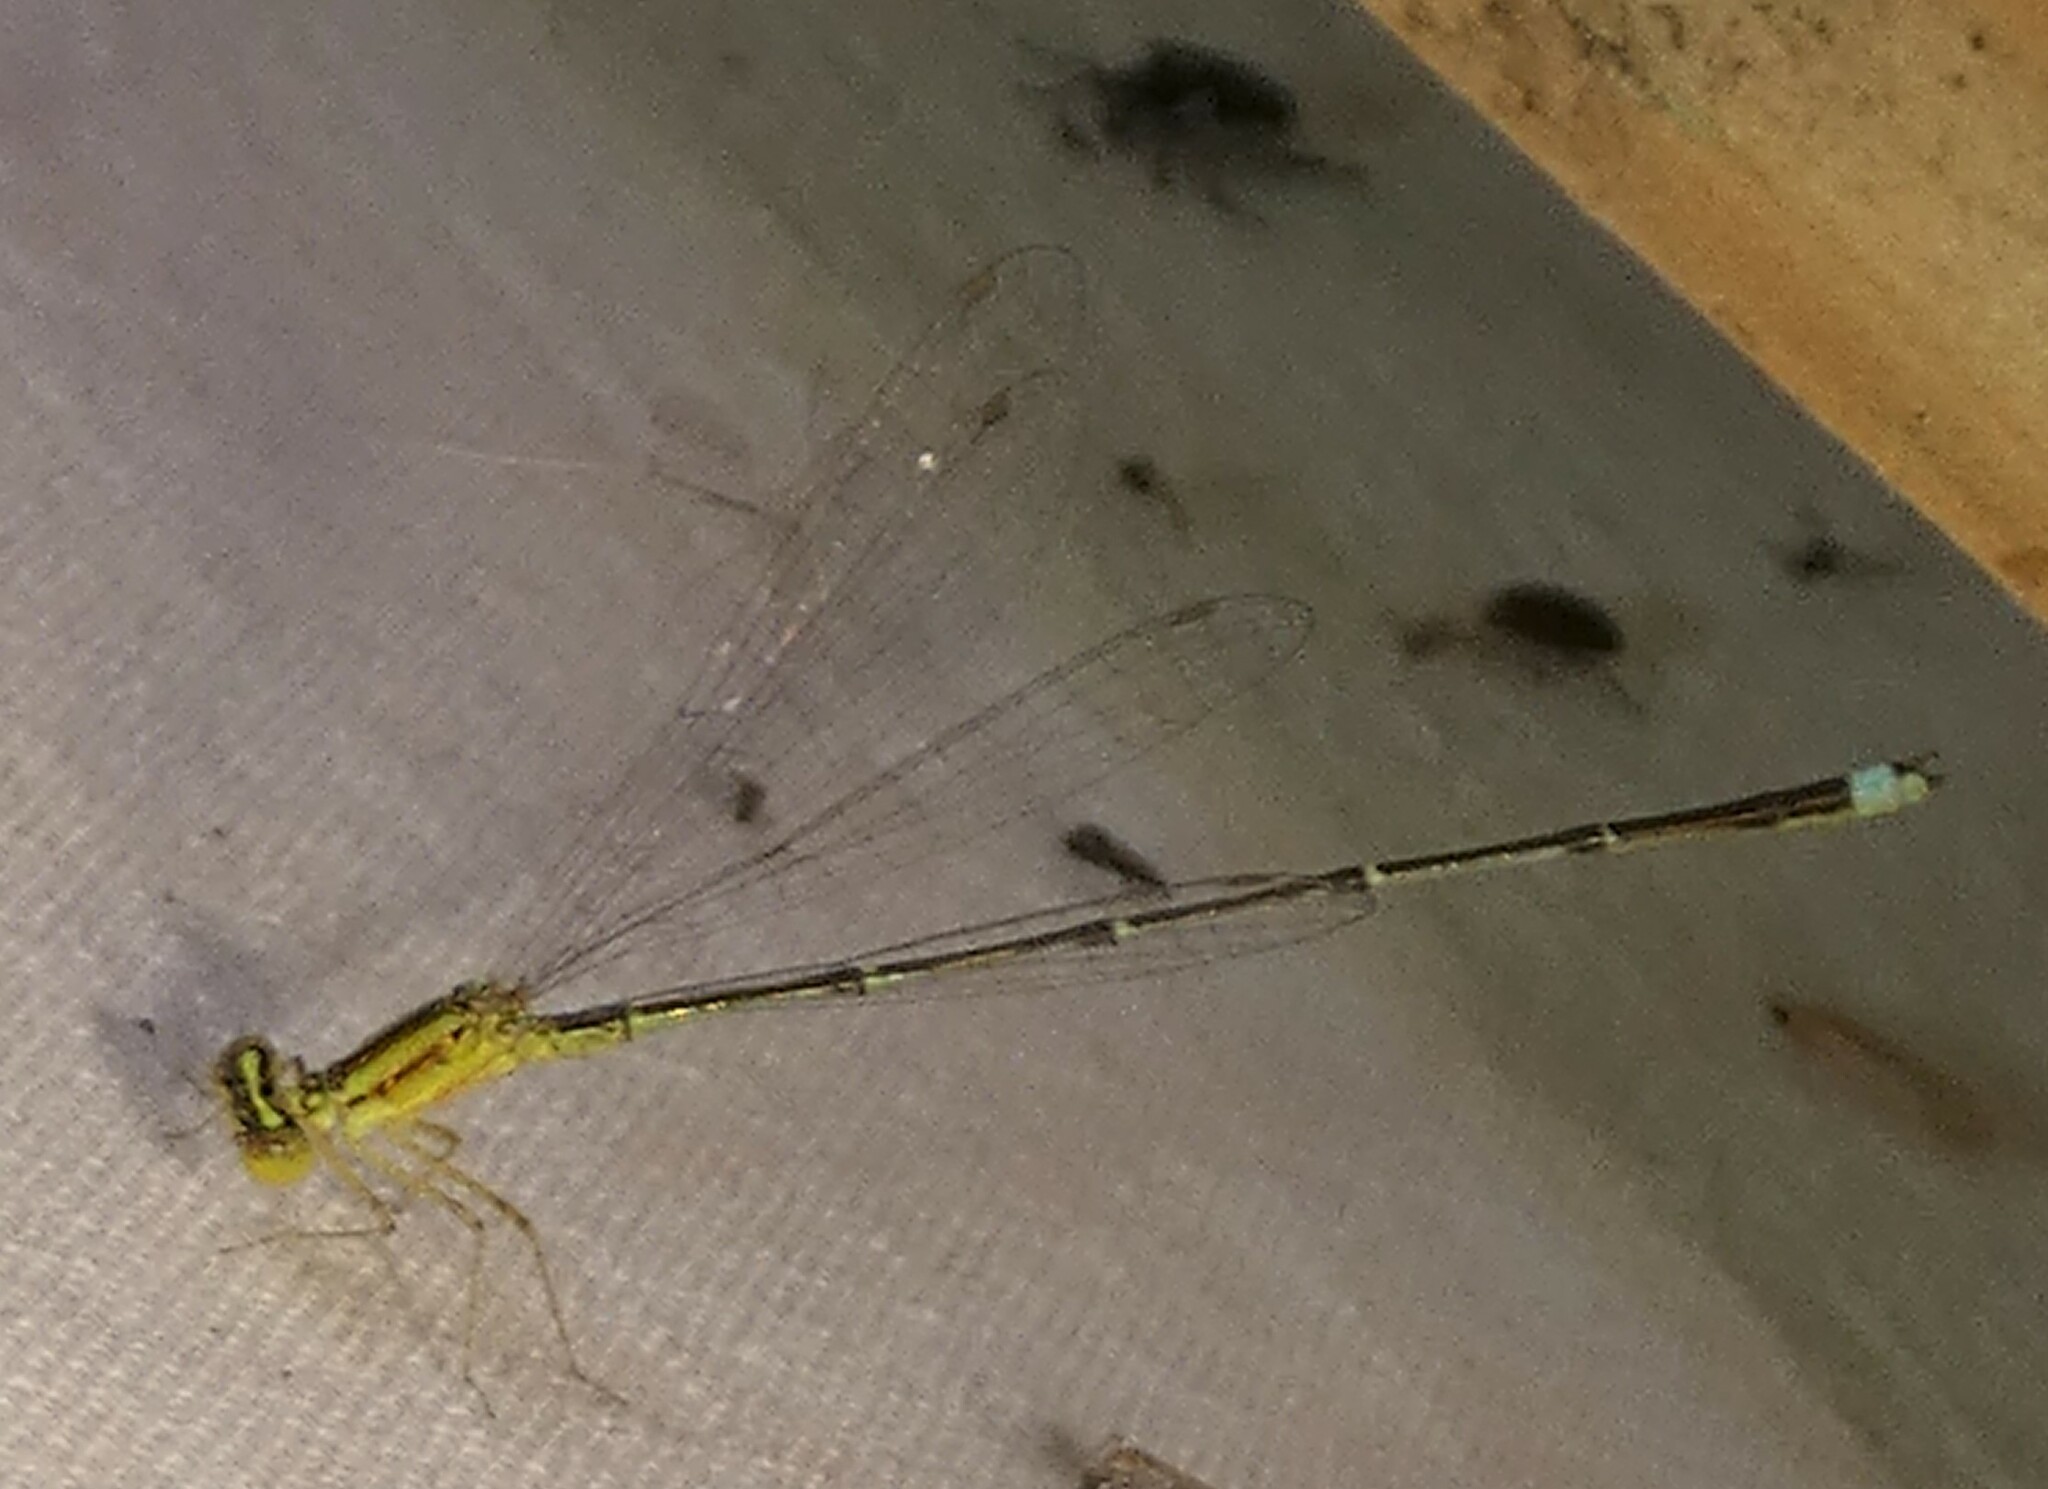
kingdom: Animalia
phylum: Arthropoda
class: Insecta
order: Odonata
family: Coenagrionidae
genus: Enallagma
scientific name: Enallagma vesperum
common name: Vesper bluet
